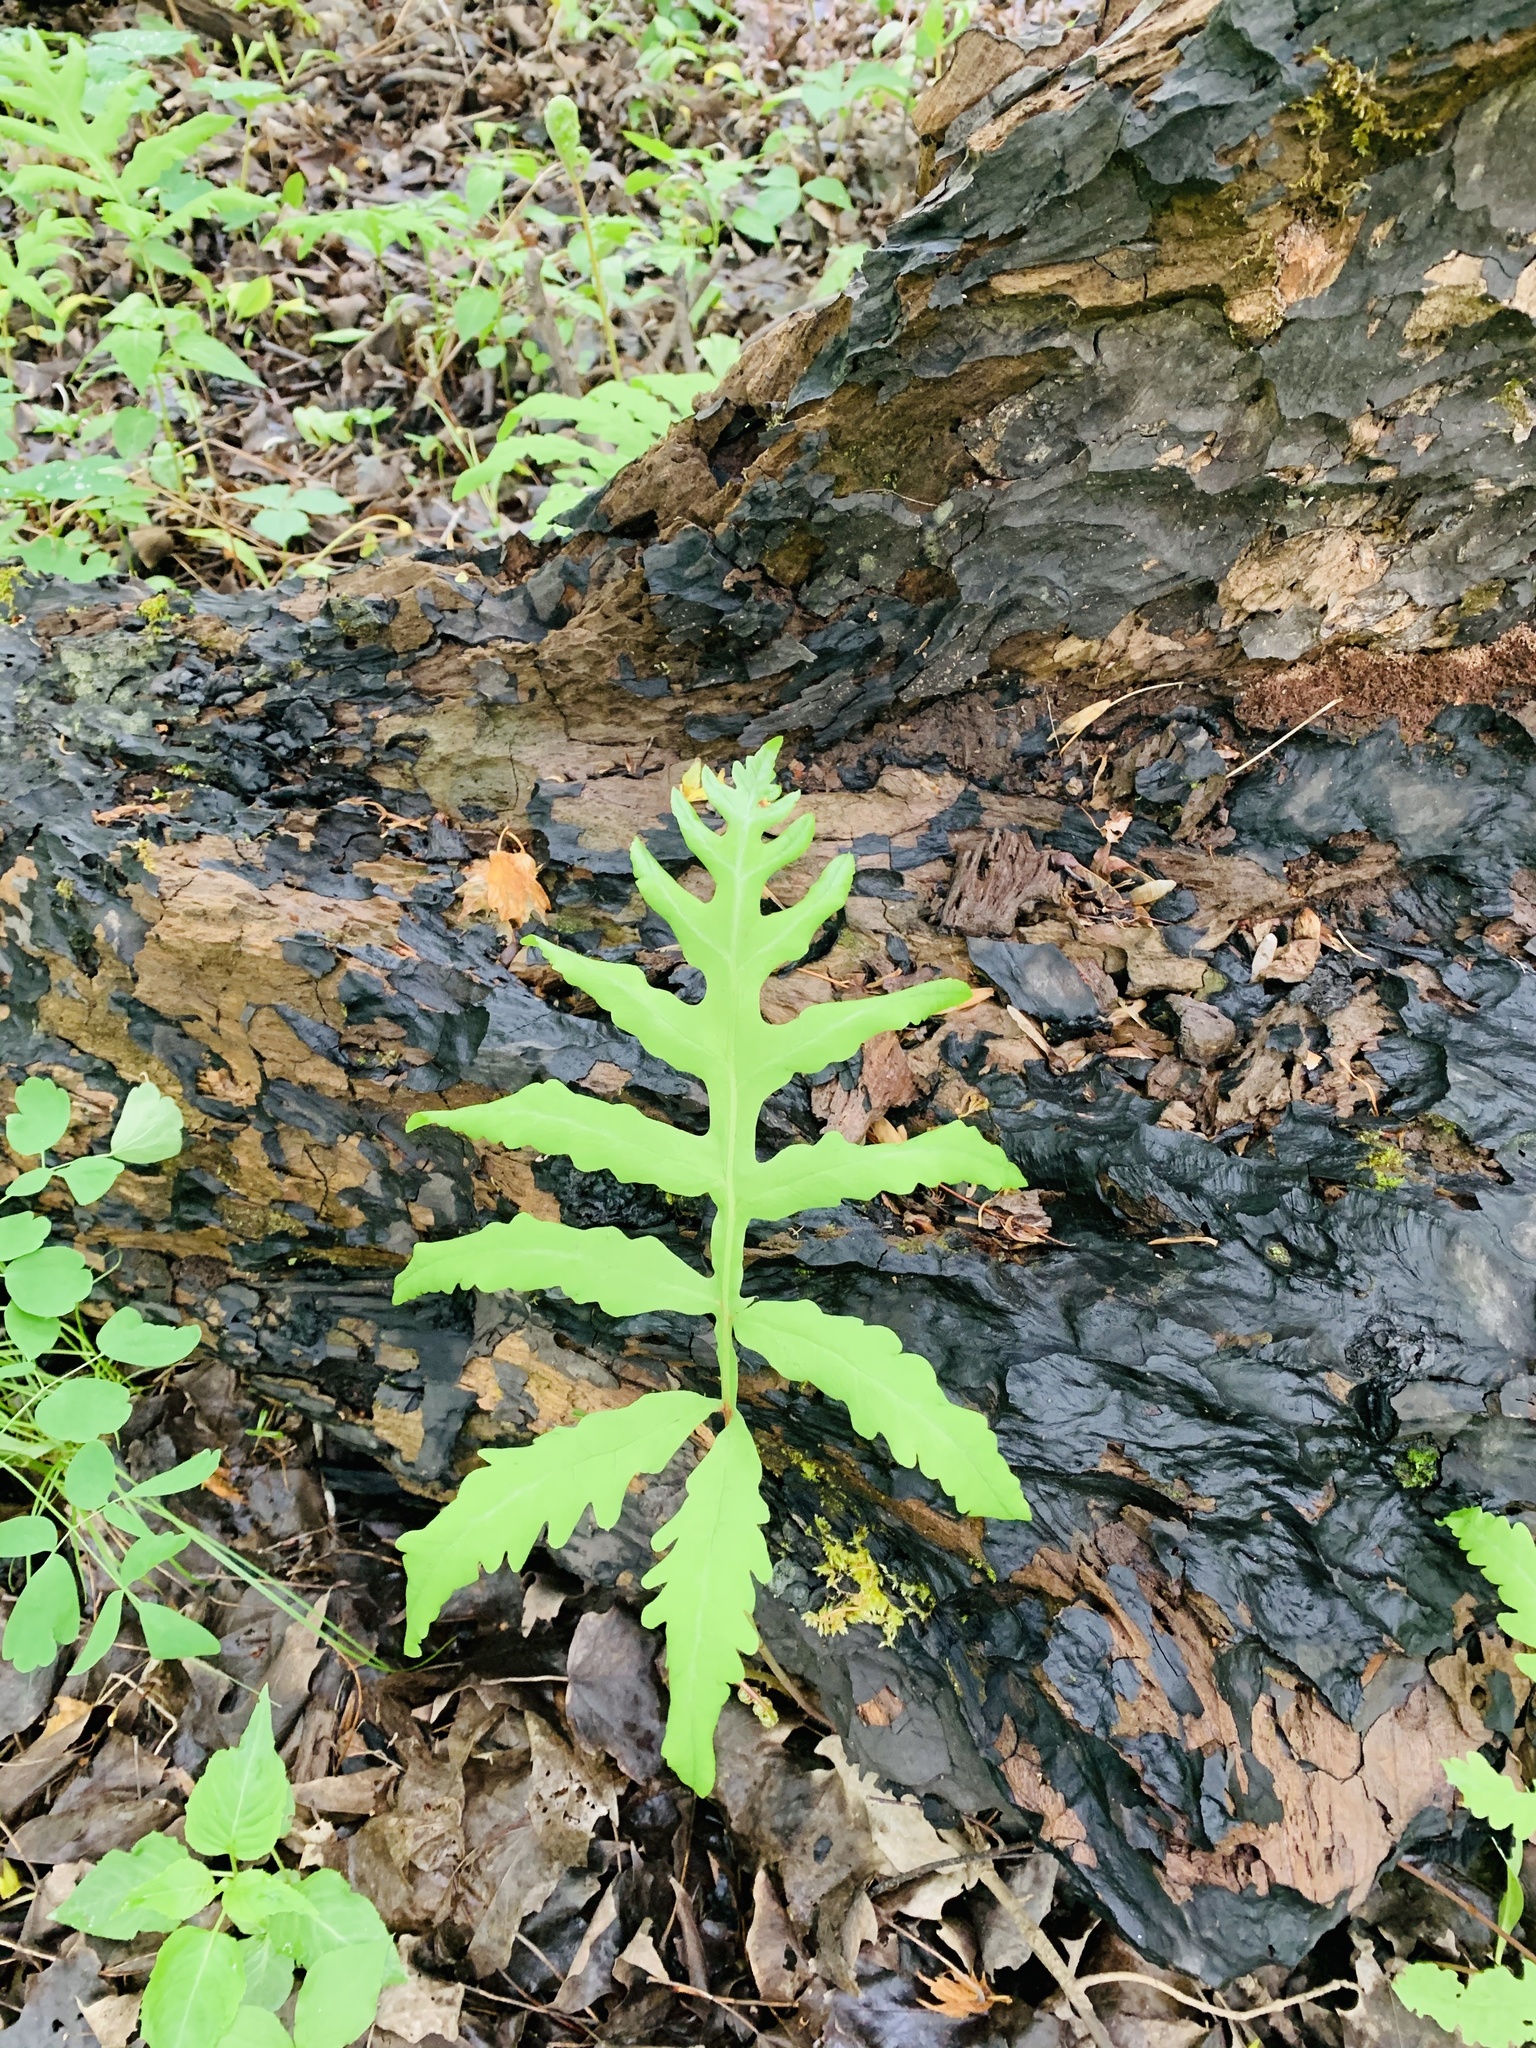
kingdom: Plantae
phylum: Tracheophyta
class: Polypodiopsida
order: Polypodiales
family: Onocleaceae
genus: Onoclea
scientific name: Onoclea sensibilis
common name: Sensitive fern
